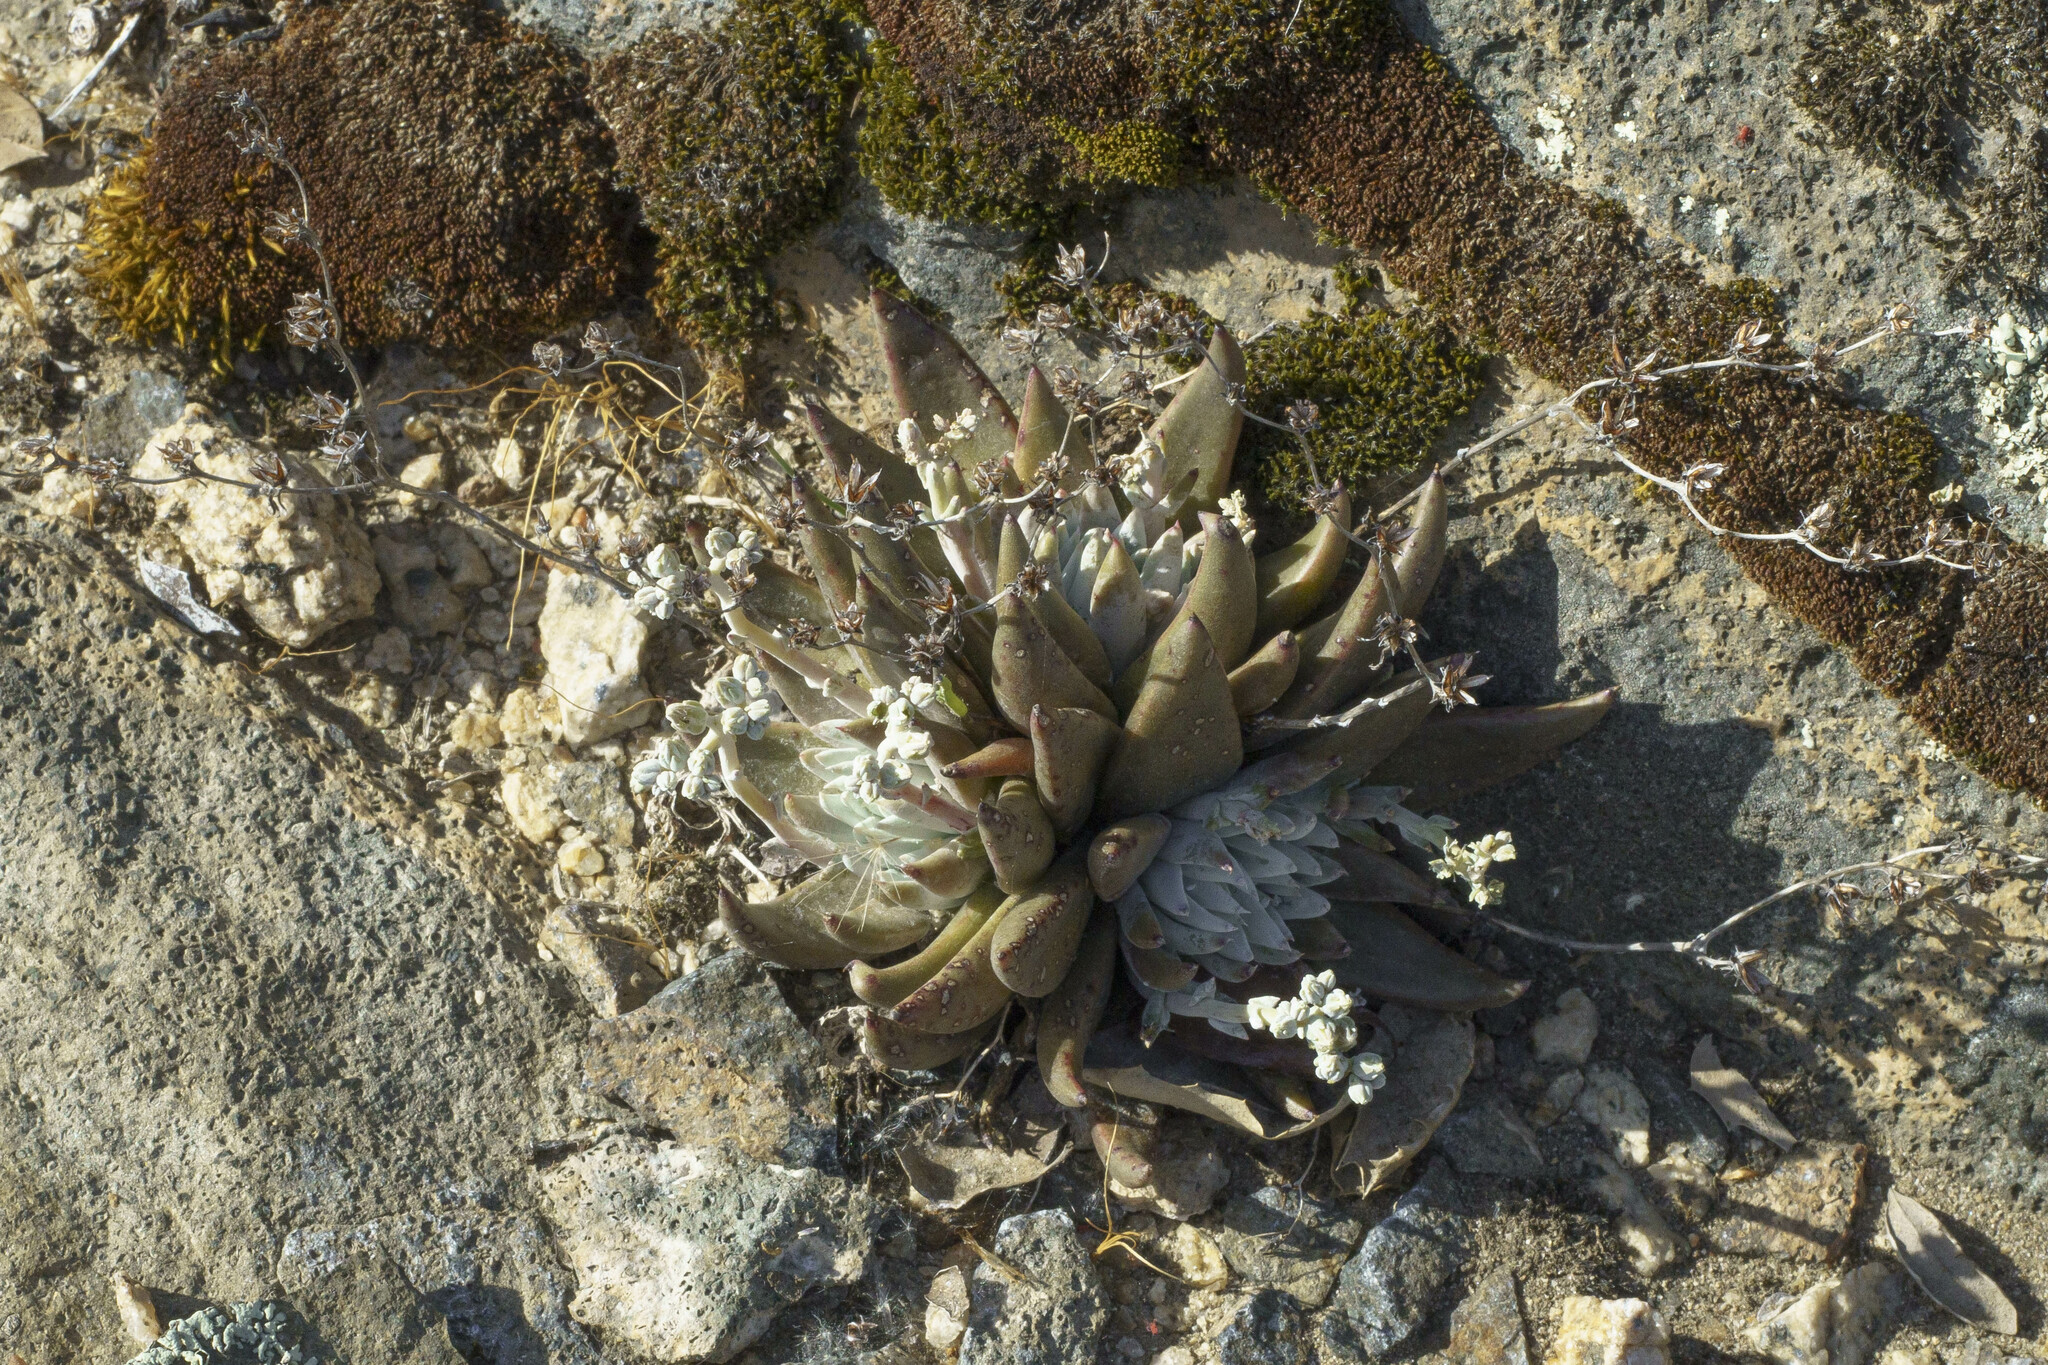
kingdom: Plantae
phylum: Tracheophyta
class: Magnoliopsida
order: Saxifragales
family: Crassulaceae
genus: Dudleya
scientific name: Dudleya abramsii
